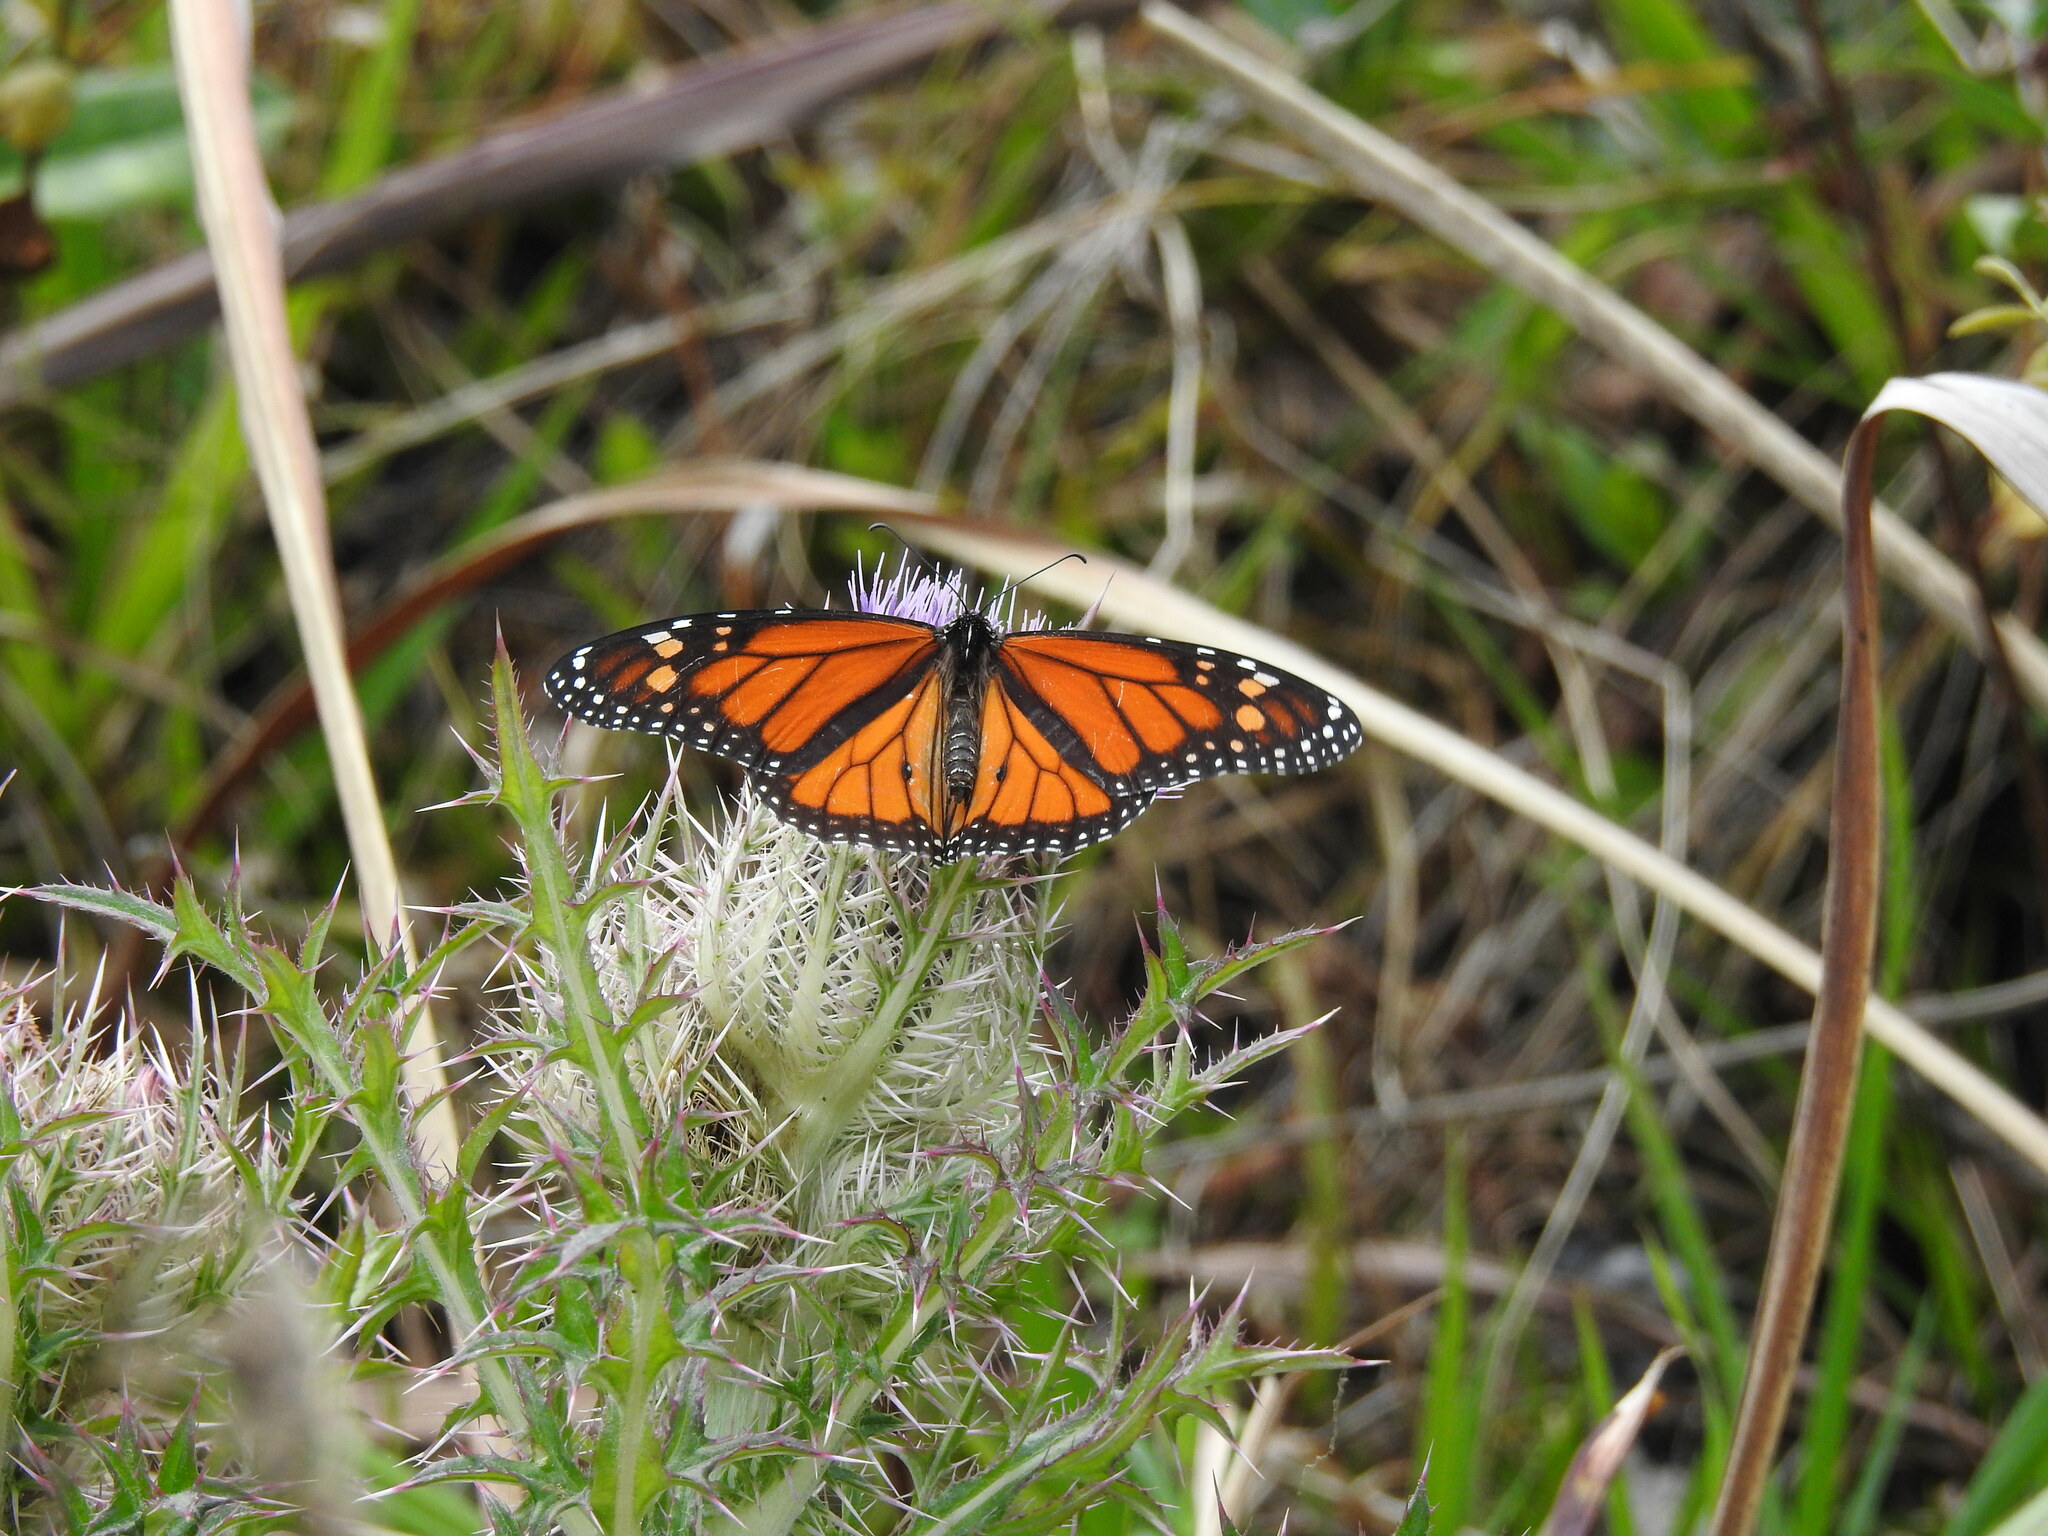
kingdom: Animalia
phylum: Arthropoda
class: Insecta
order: Lepidoptera
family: Nymphalidae
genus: Danaus
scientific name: Danaus plexippus
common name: Monarch
